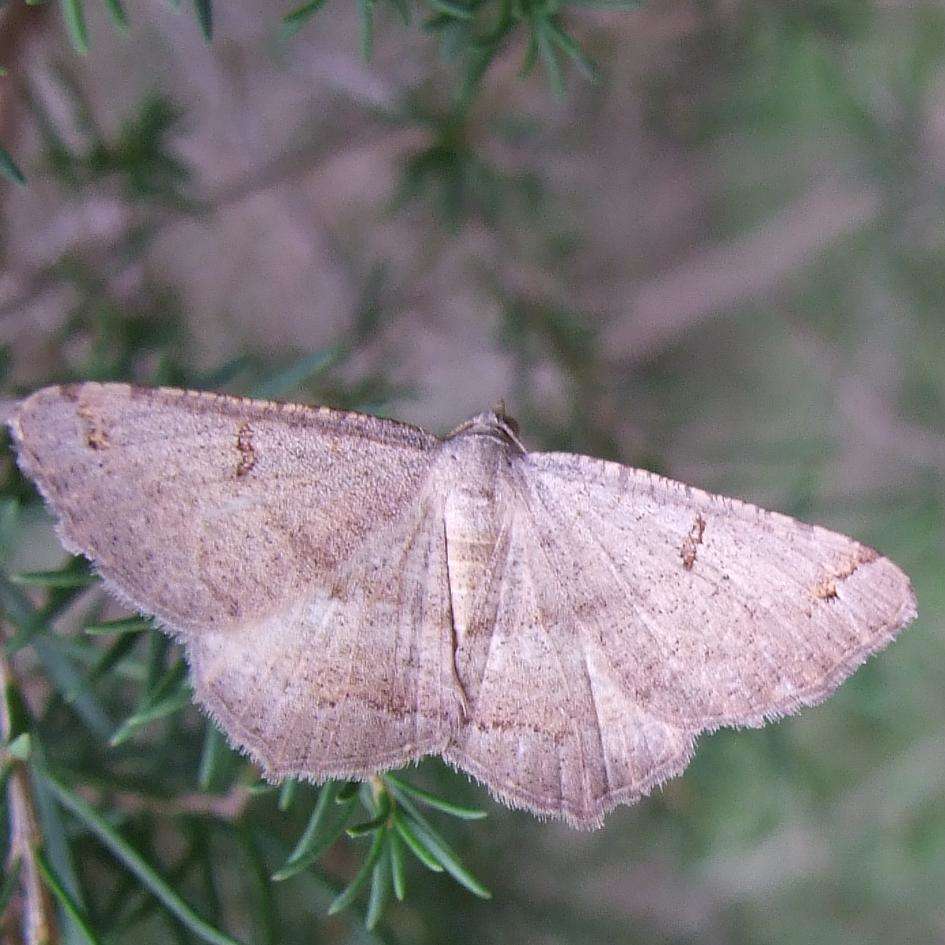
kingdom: Animalia
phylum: Arthropoda
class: Insecta
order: Lepidoptera
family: Geometridae
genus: Dissomorphia
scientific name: Dissomorphia australiaria
